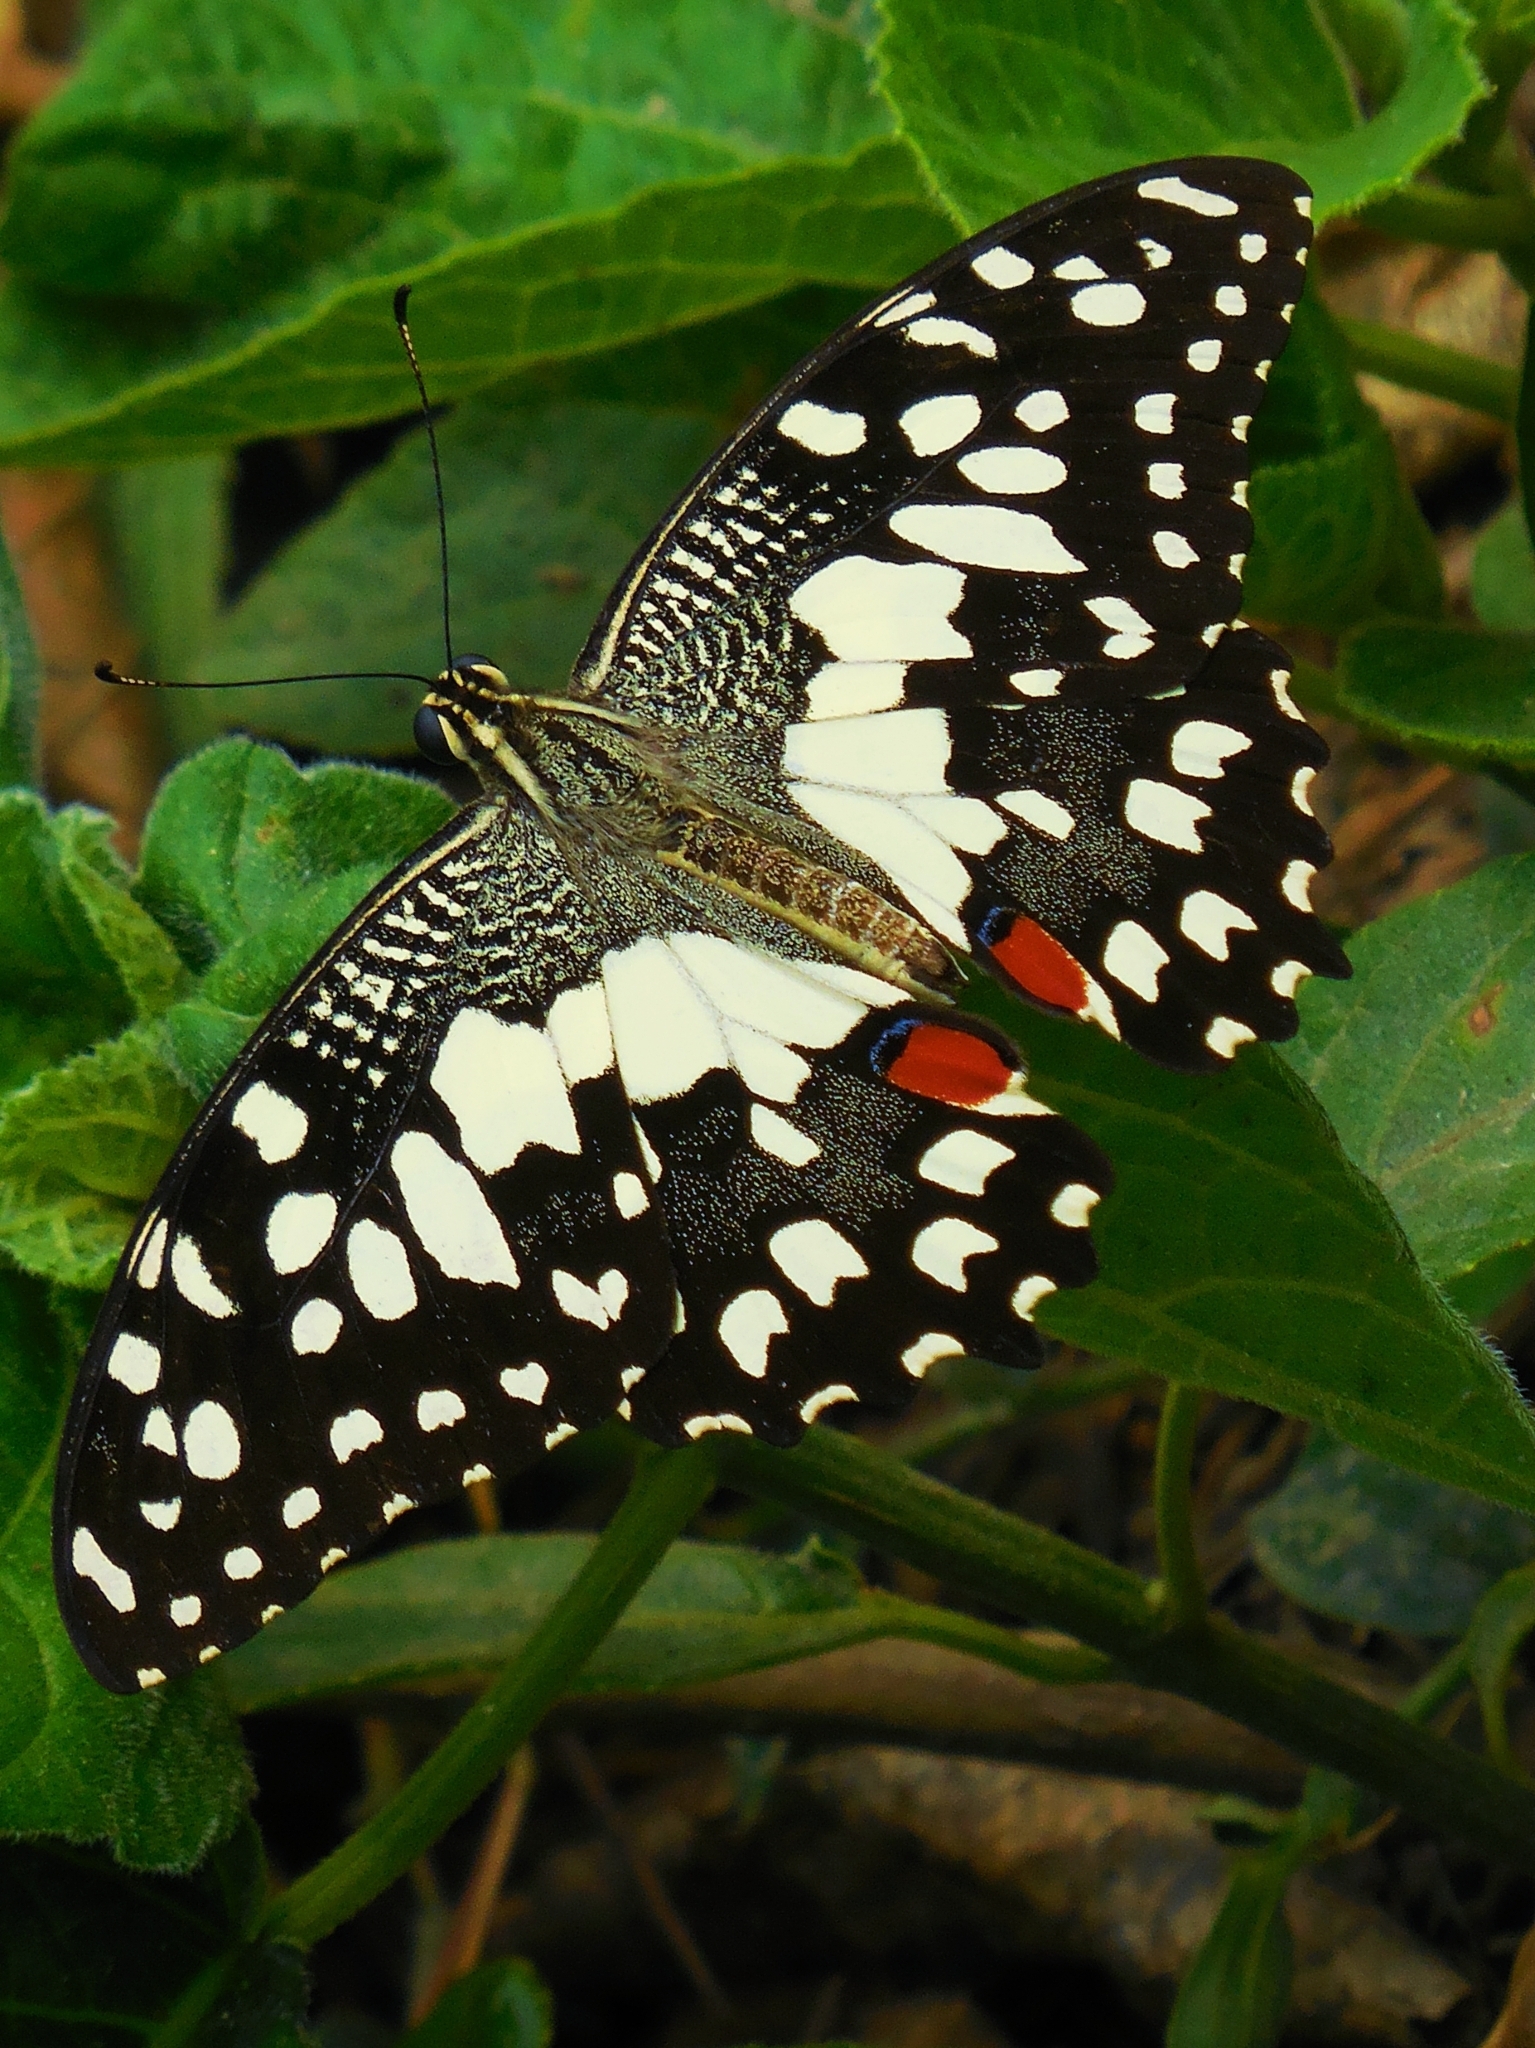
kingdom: Animalia
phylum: Arthropoda
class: Insecta
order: Lepidoptera
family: Papilionidae
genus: Papilio
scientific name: Papilio demoleus
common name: Lime butterfly
